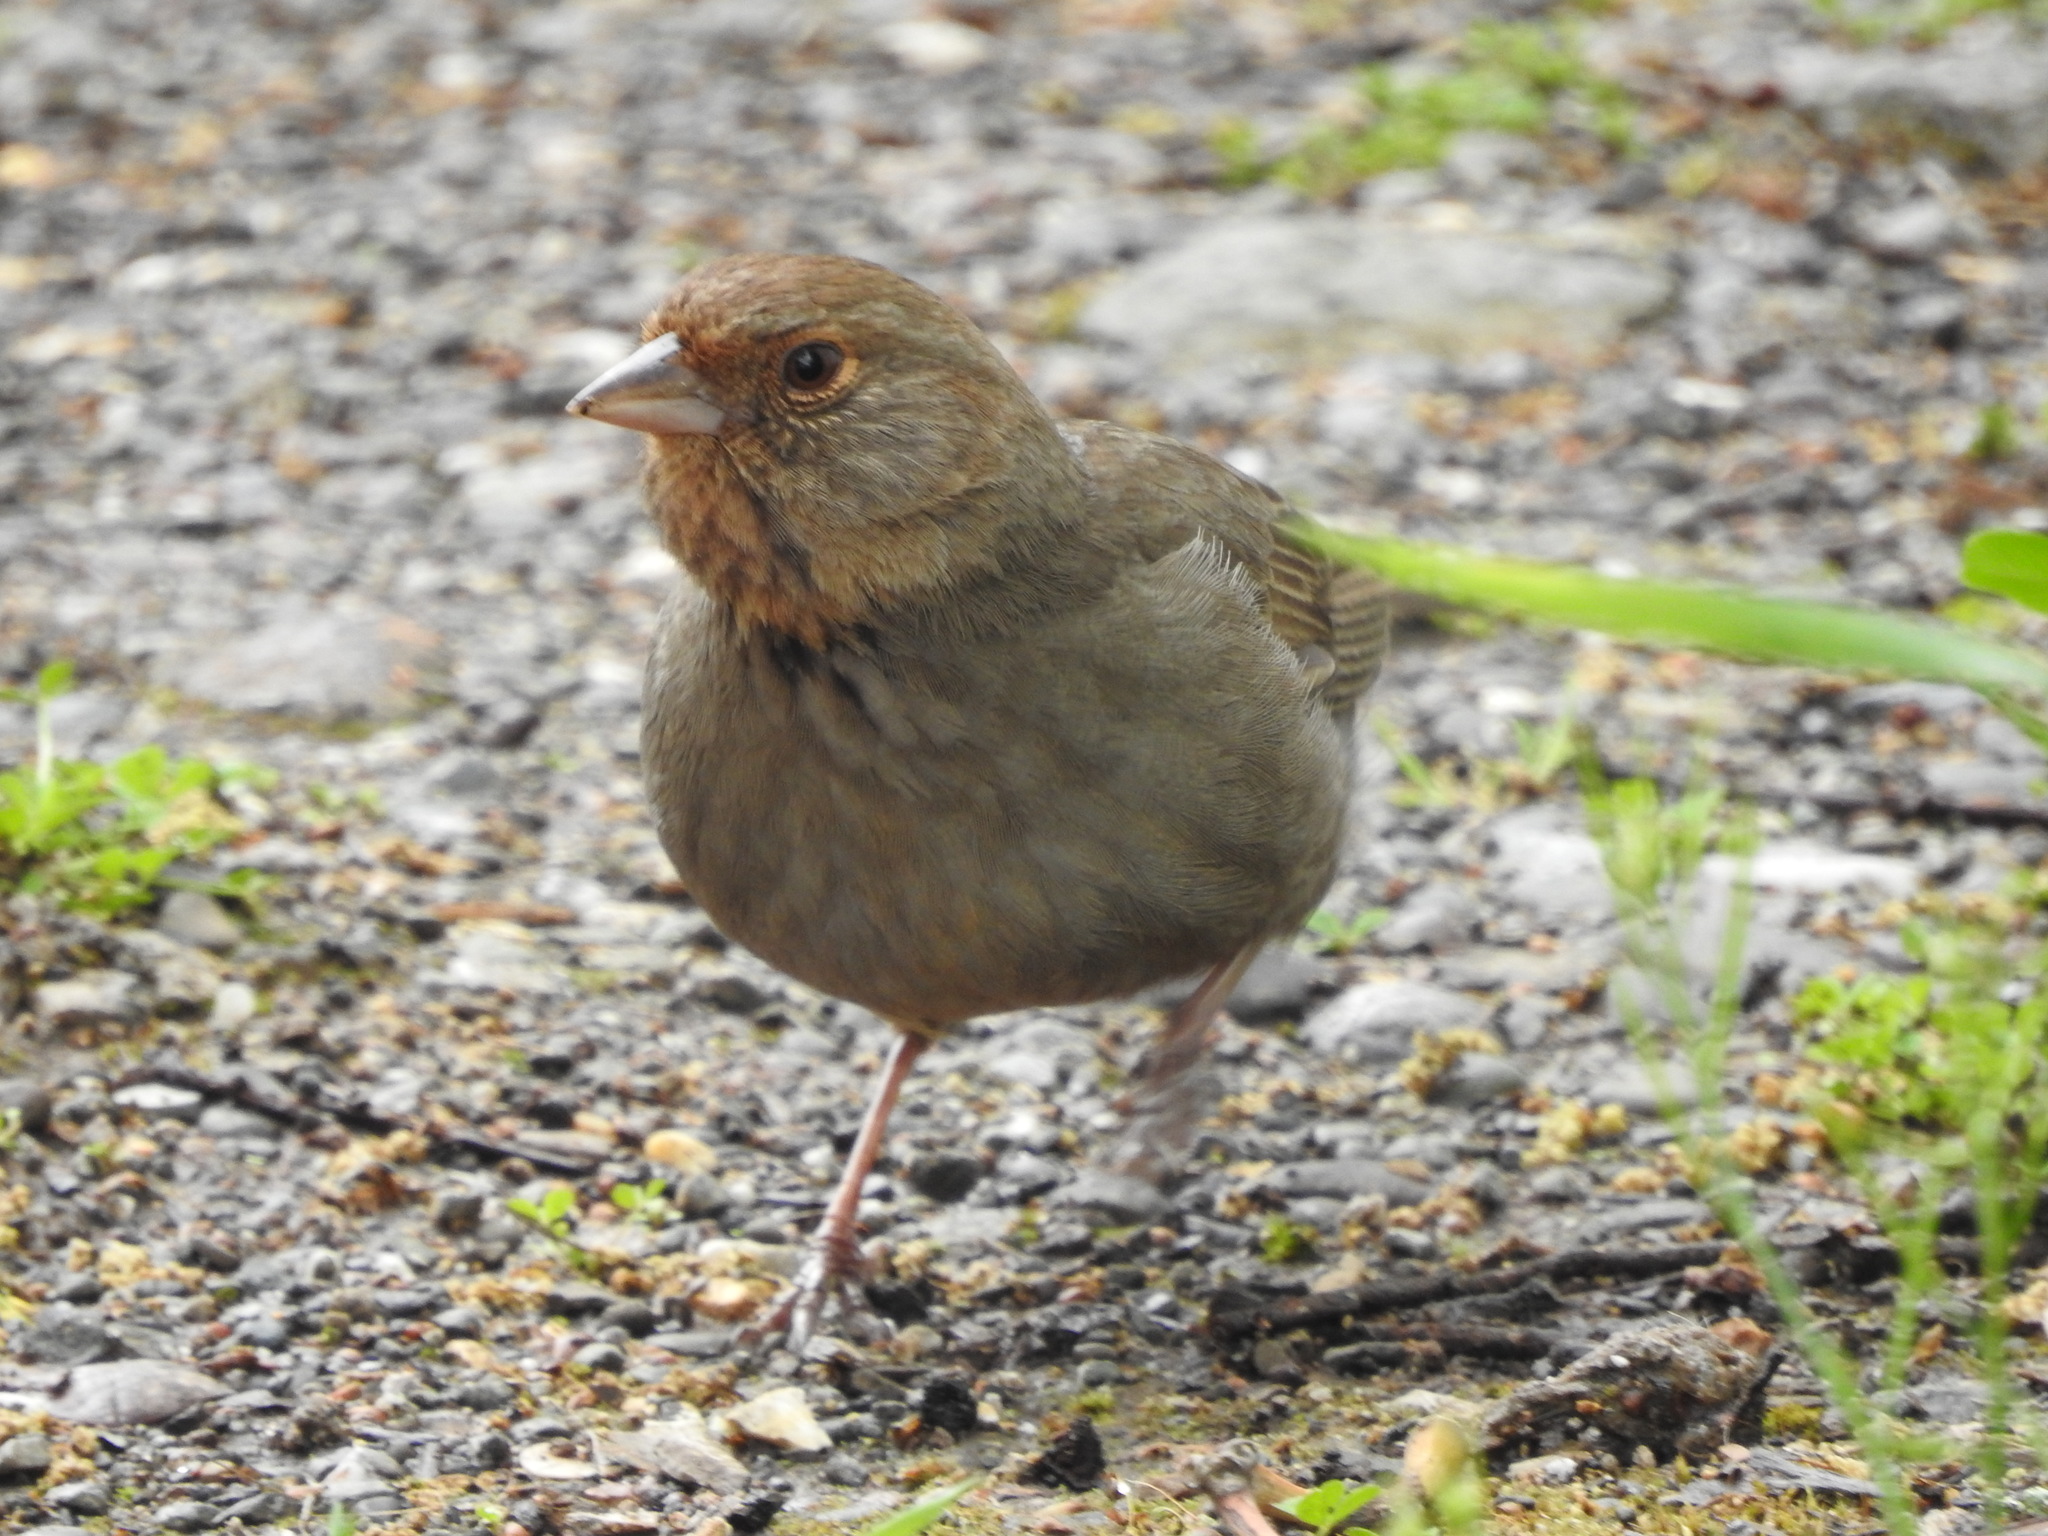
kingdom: Animalia
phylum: Chordata
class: Aves
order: Passeriformes
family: Passerellidae
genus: Melozone
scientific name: Melozone crissalis
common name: California towhee
